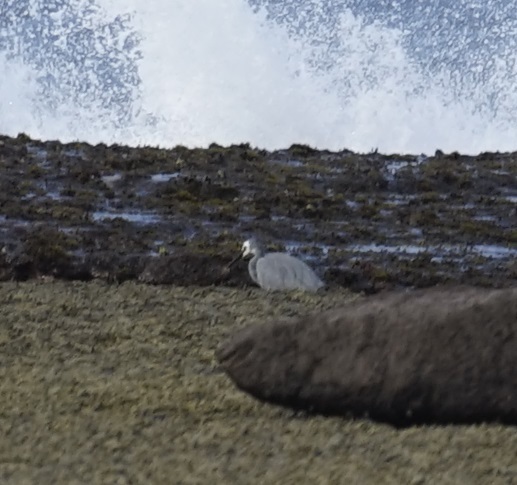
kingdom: Animalia
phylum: Chordata
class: Aves
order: Pelecaniformes
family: Ardeidae
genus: Egretta
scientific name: Egretta novaehollandiae
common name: White-faced heron
